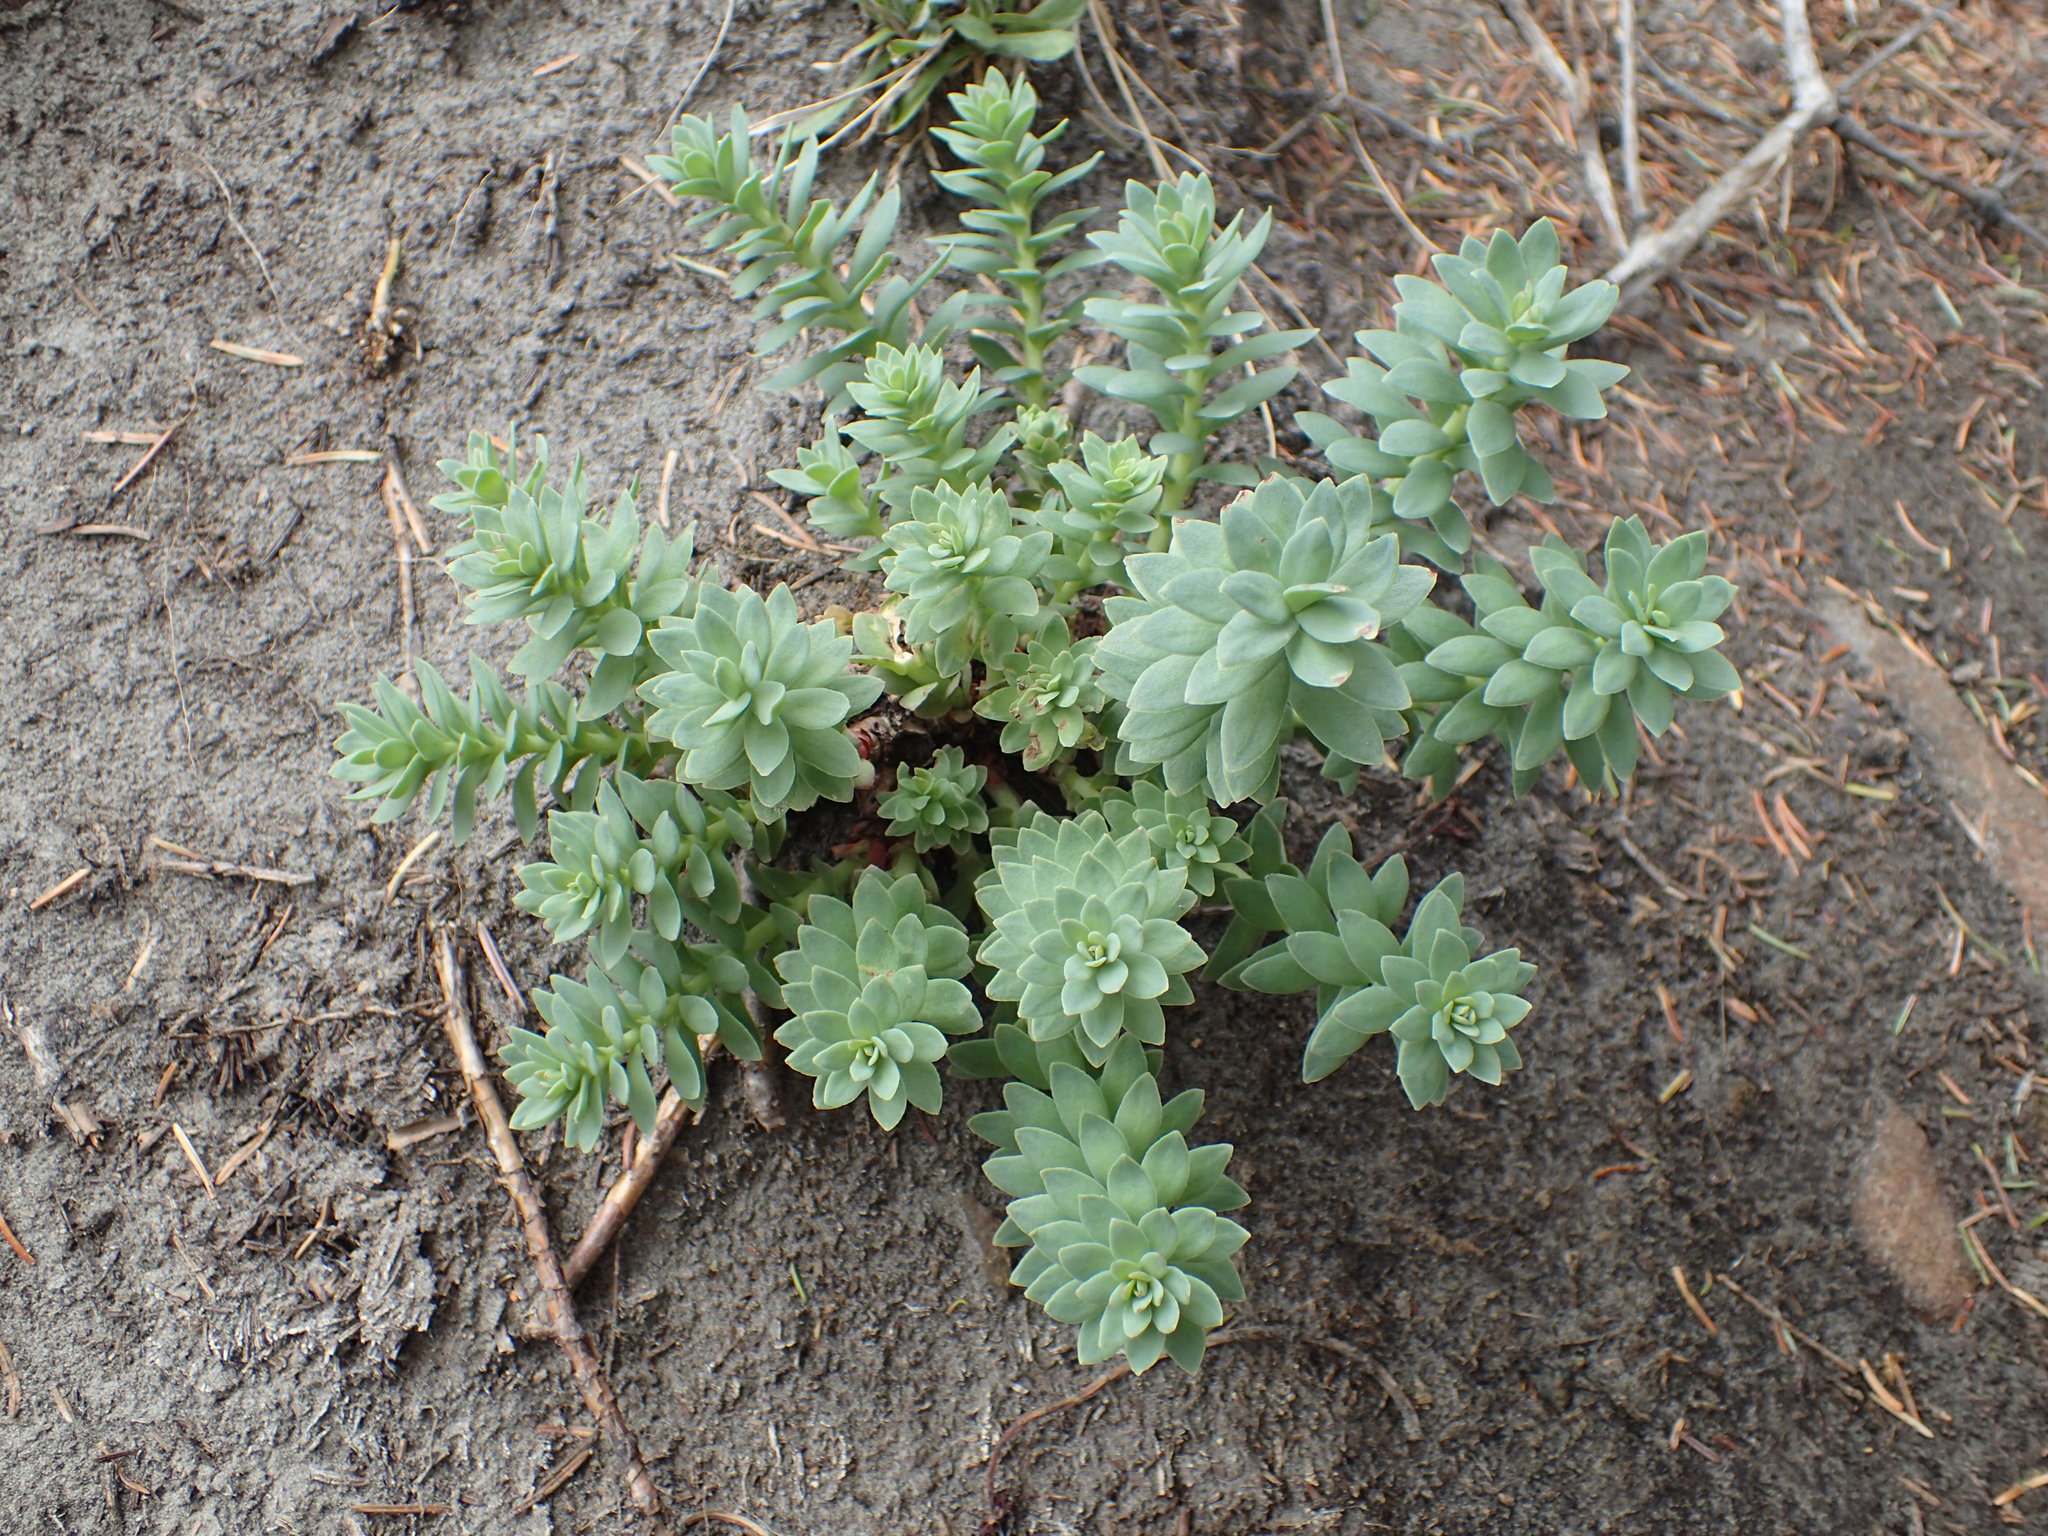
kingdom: Plantae
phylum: Tracheophyta
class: Magnoliopsida
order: Saxifragales
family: Crassulaceae
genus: Rhodiola
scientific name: Rhodiola integrifolia
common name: Western roseroot
